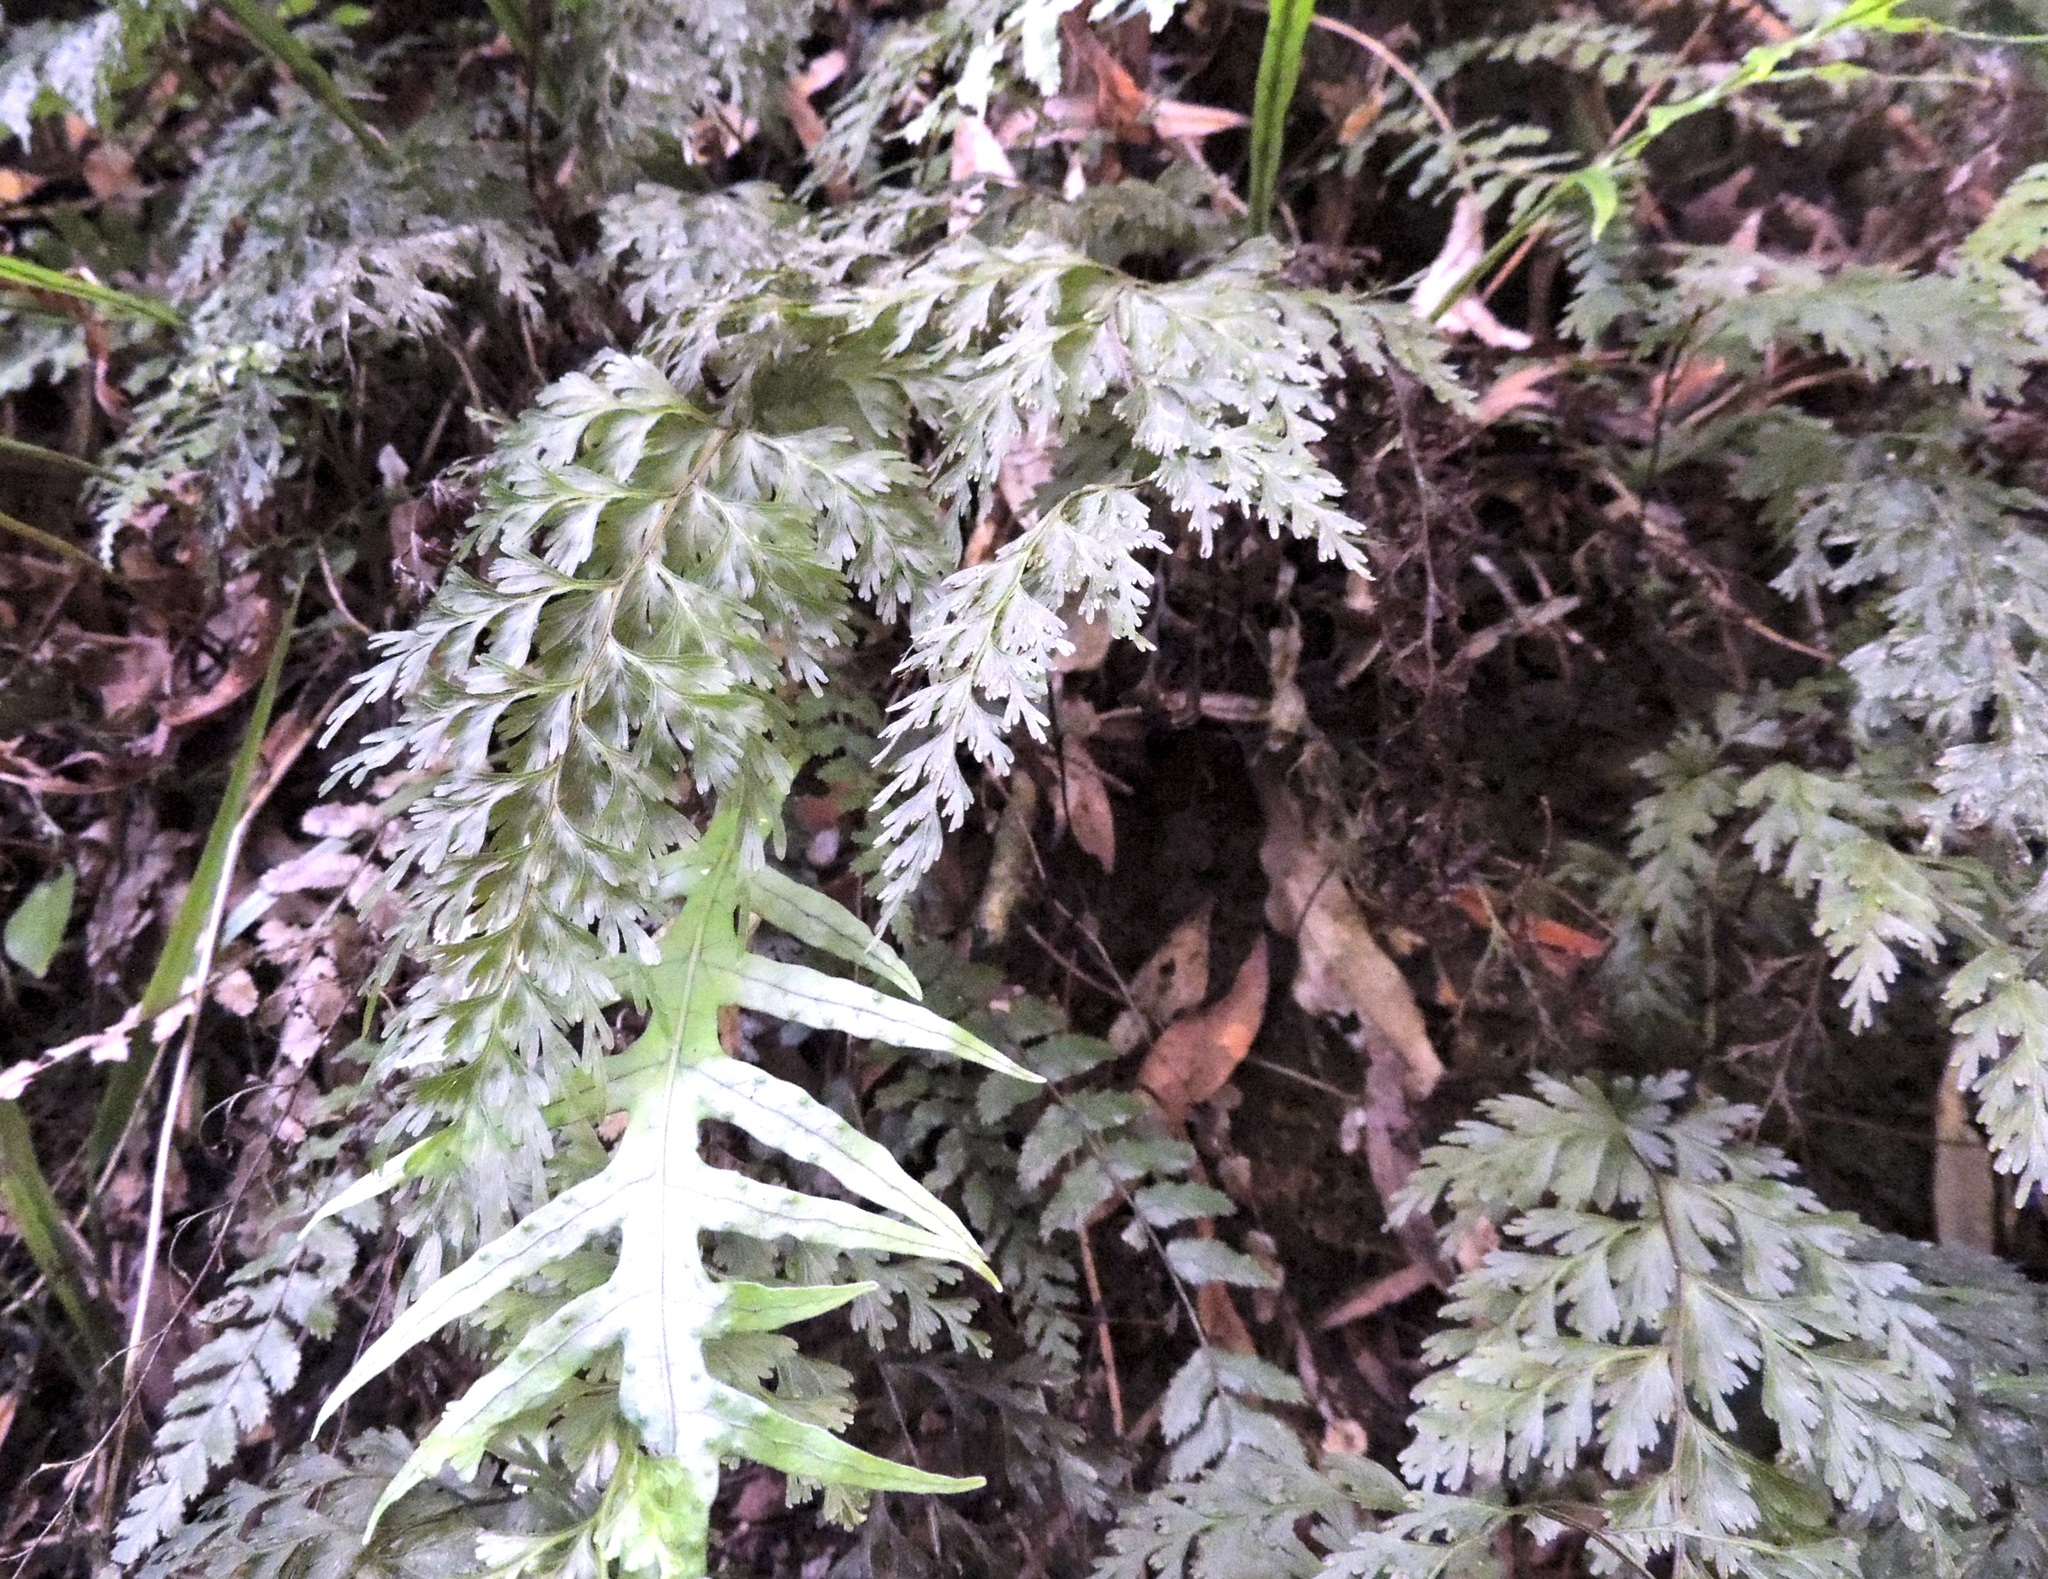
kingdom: Plantae
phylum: Tracheophyta
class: Polypodiopsida
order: Hymenophyllales
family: Hymenophyllaceae
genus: Hymenophyllum
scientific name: Hymenophyllum demissum
